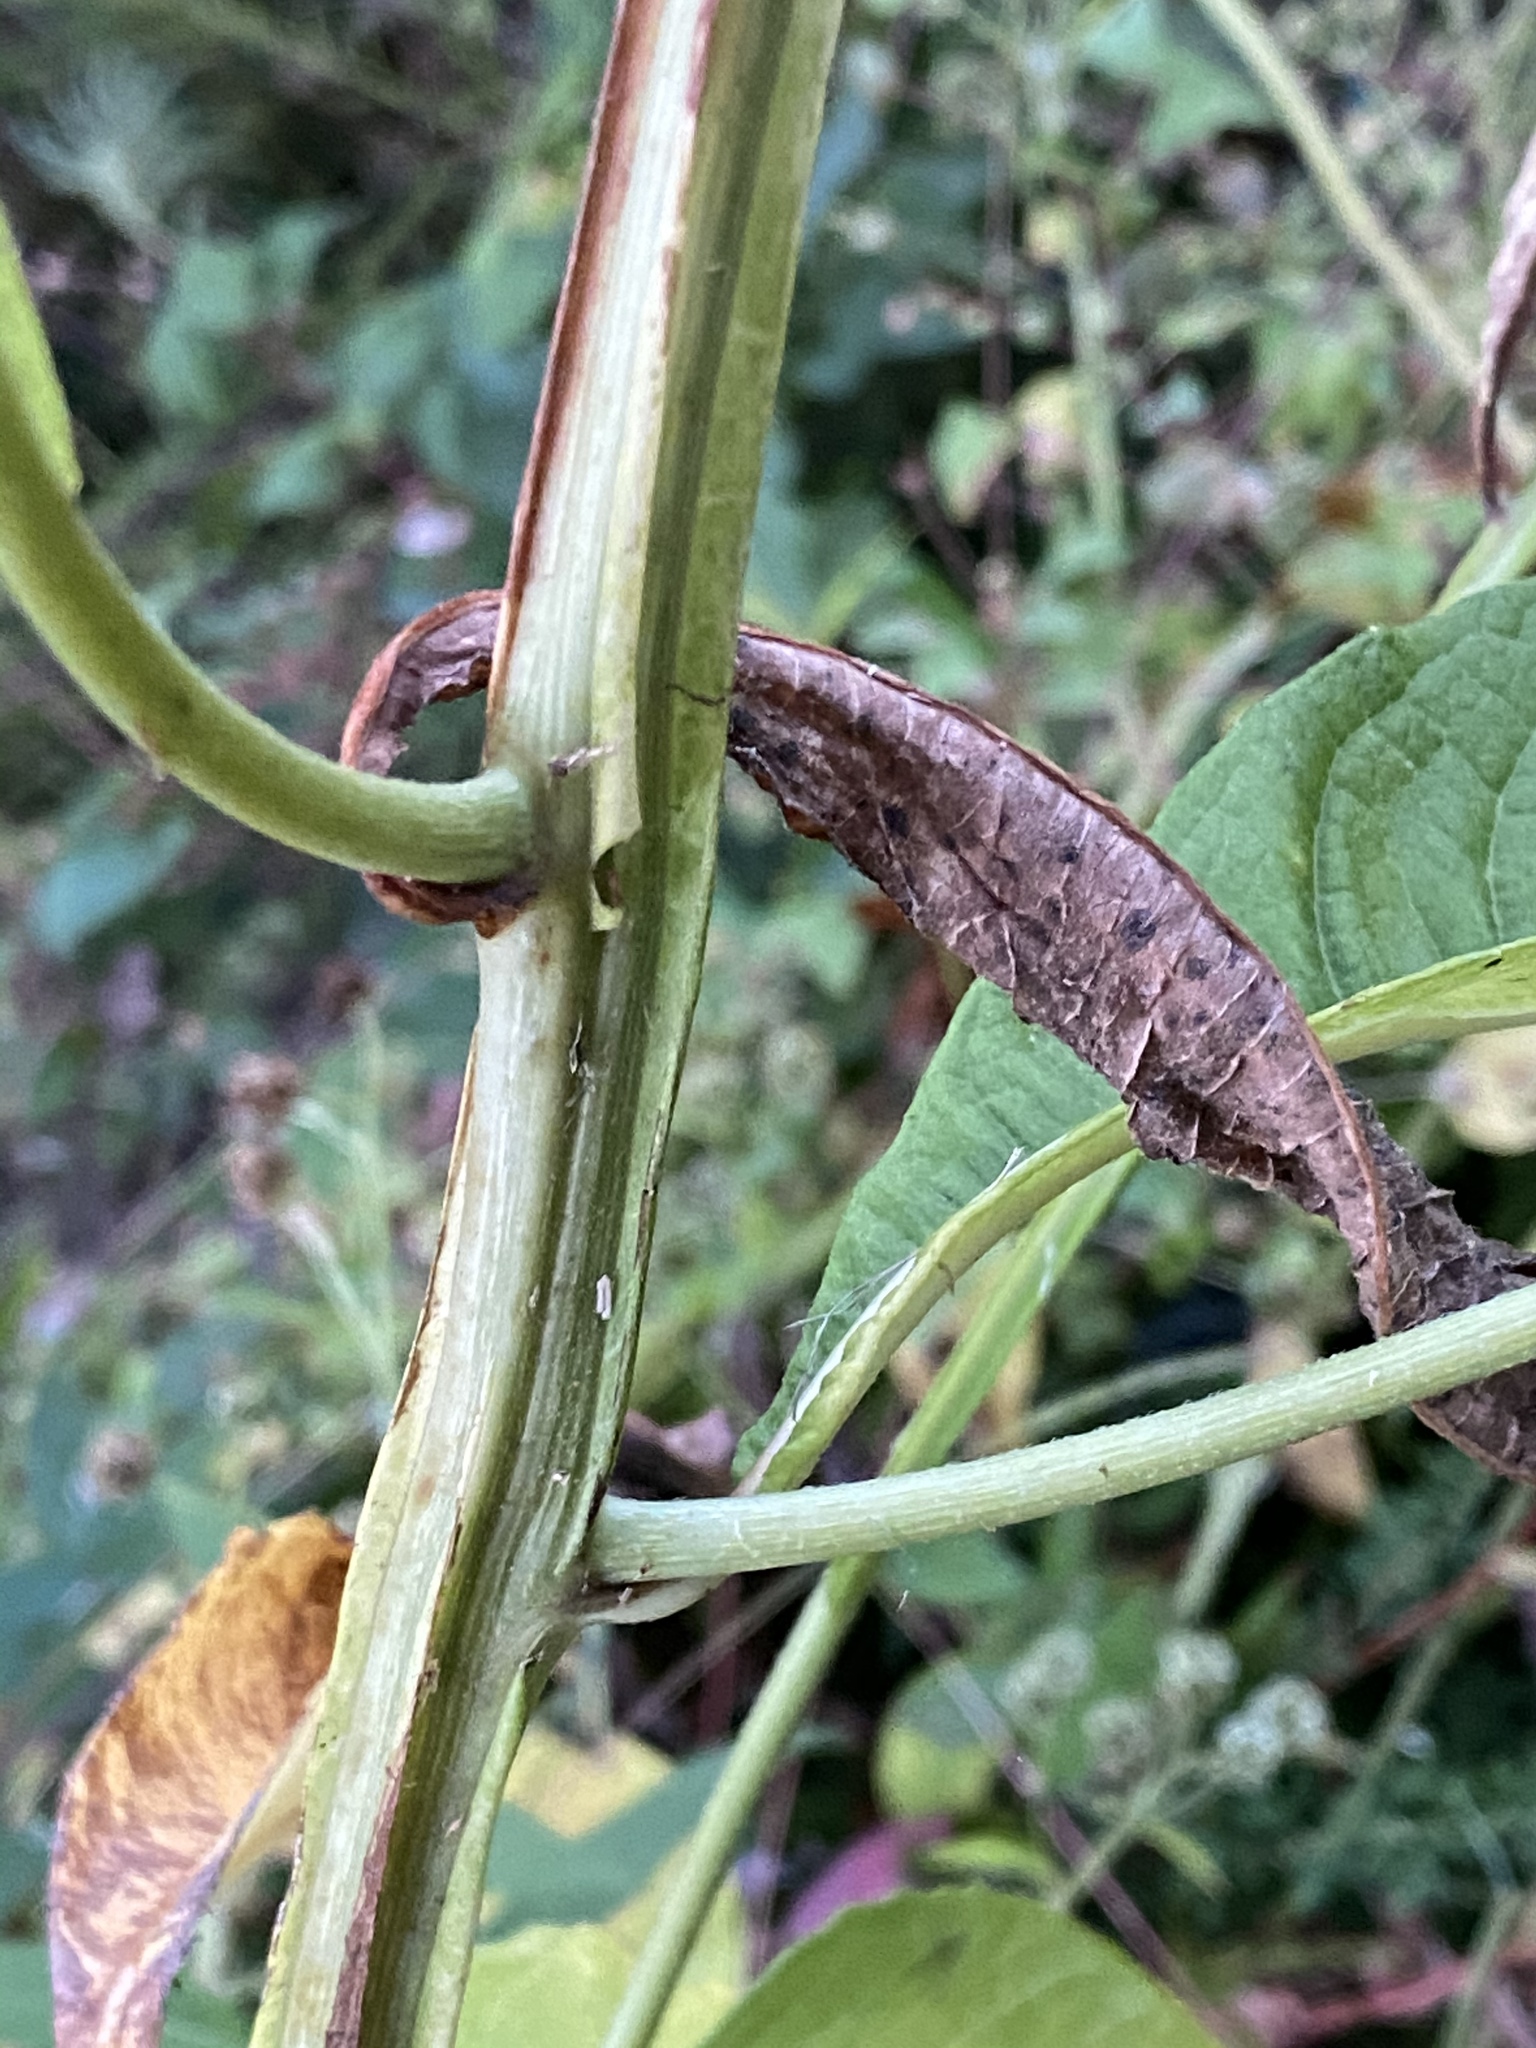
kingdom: Plantae
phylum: Tracheophyta
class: Magnoliopsida
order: Asterales
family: Asteraceae
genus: Verbesina
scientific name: Verbesina alternifolia
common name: Wingstem
